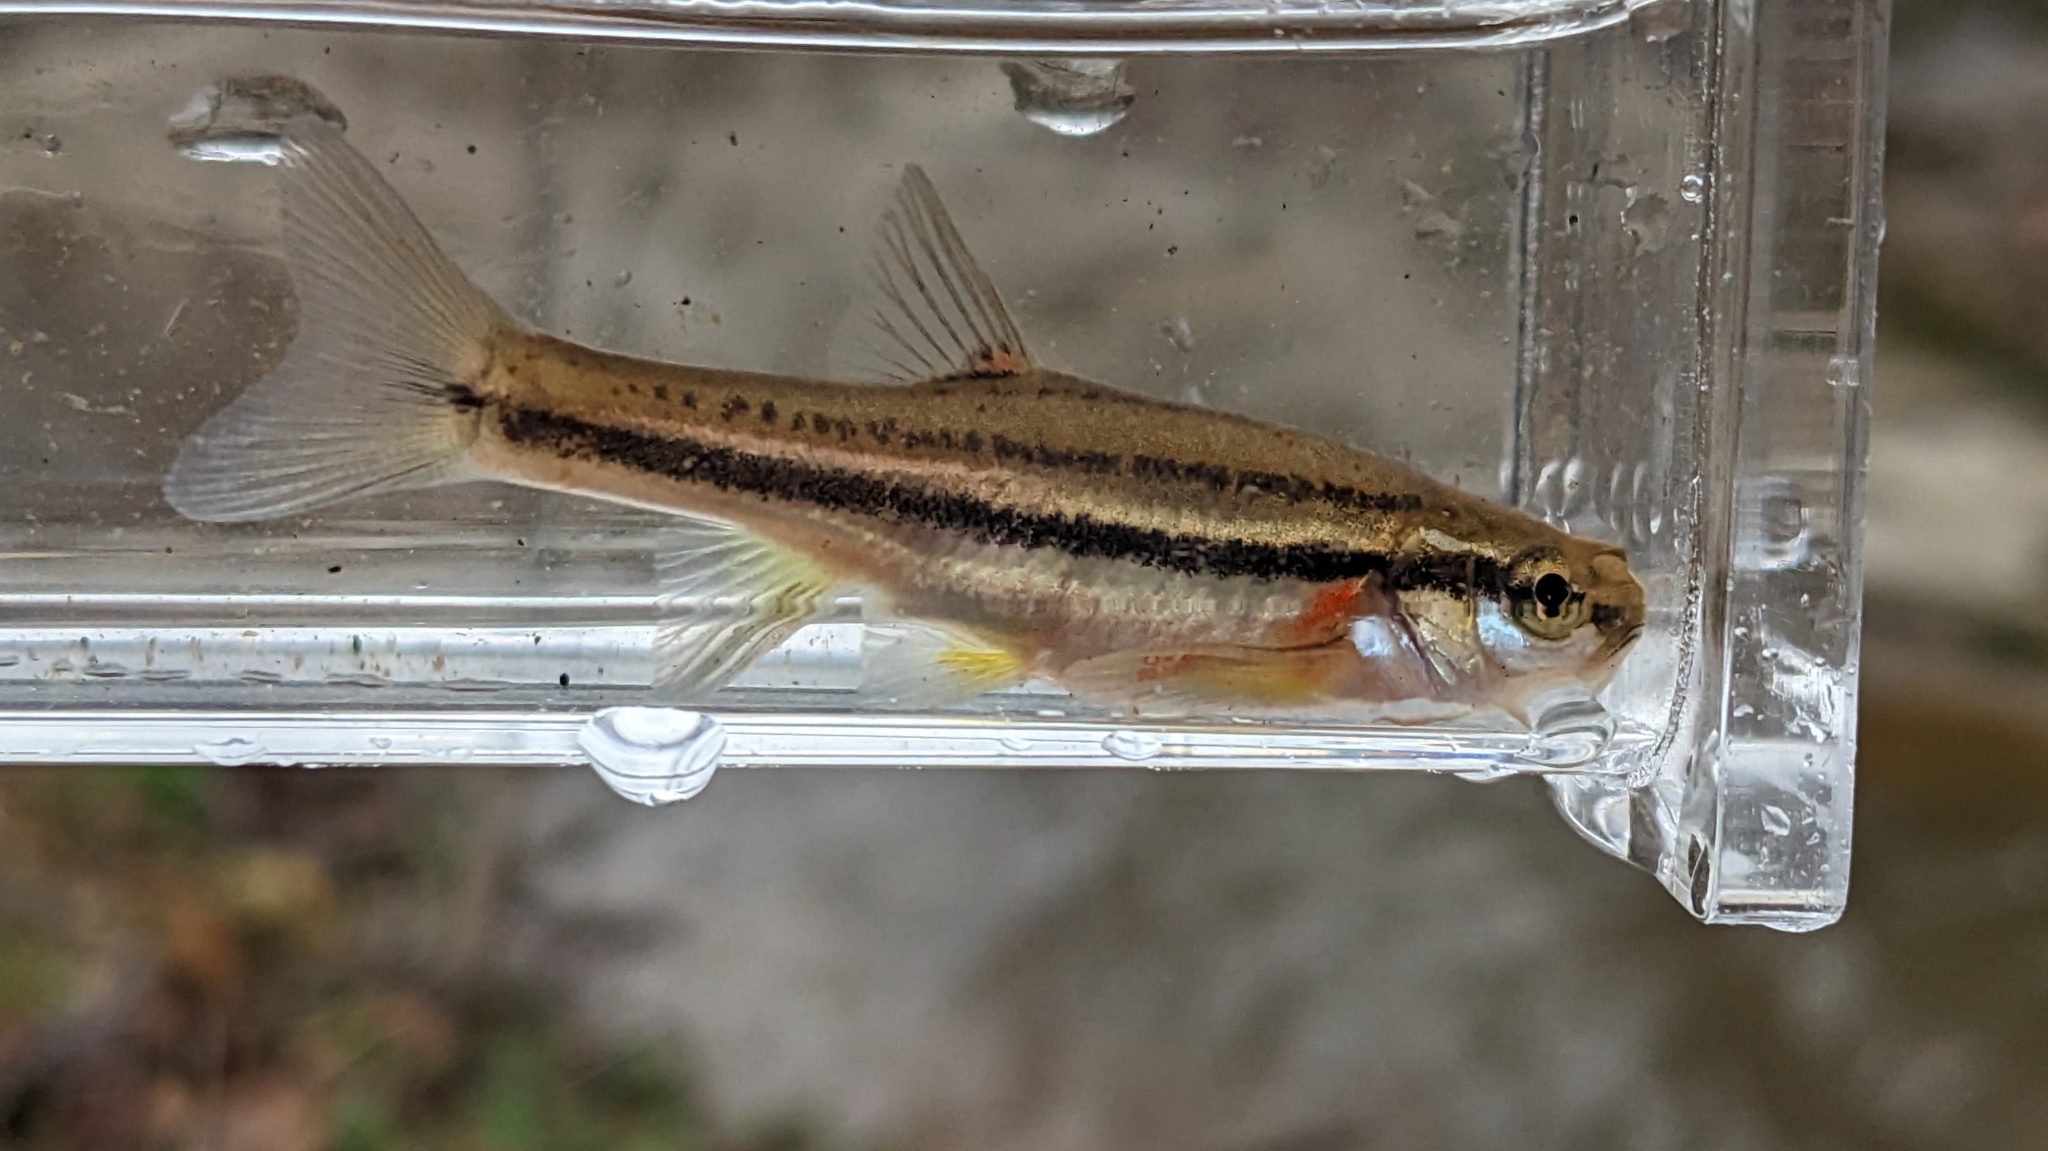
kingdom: Animalia
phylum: Chordata
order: Cypriniformes
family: Cyprinidae
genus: Chrosomus
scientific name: Chrosomus erythrogaster
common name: Southern redbelly dace
